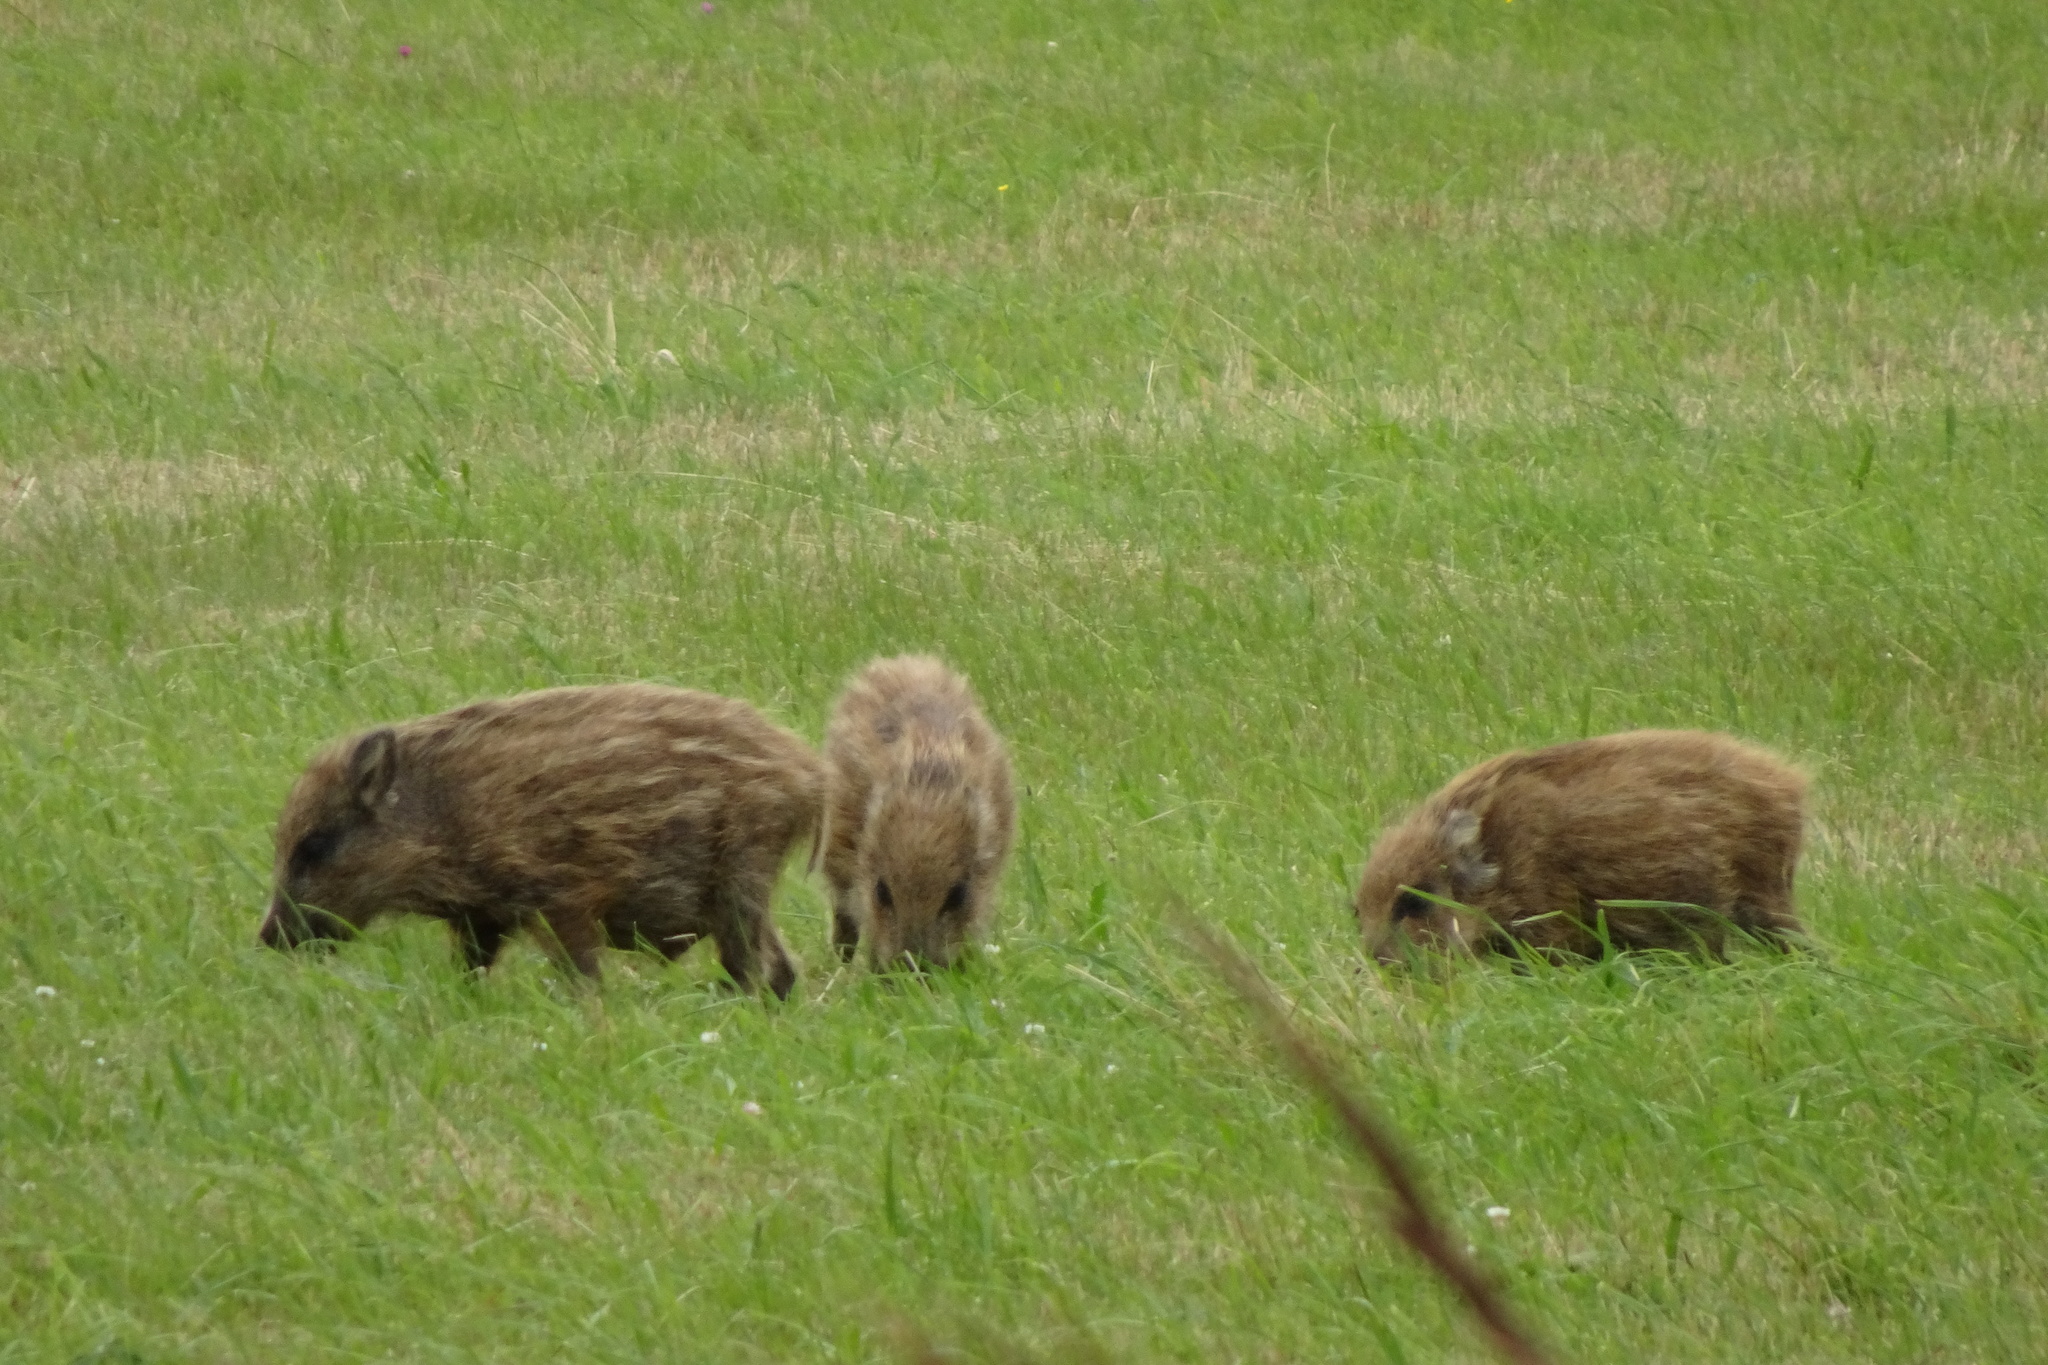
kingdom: Animalia
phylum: Chordata
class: Mammalia
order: Artiodactyla
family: Suidae
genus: Sus
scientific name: Sus scrofa
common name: Wild boar
